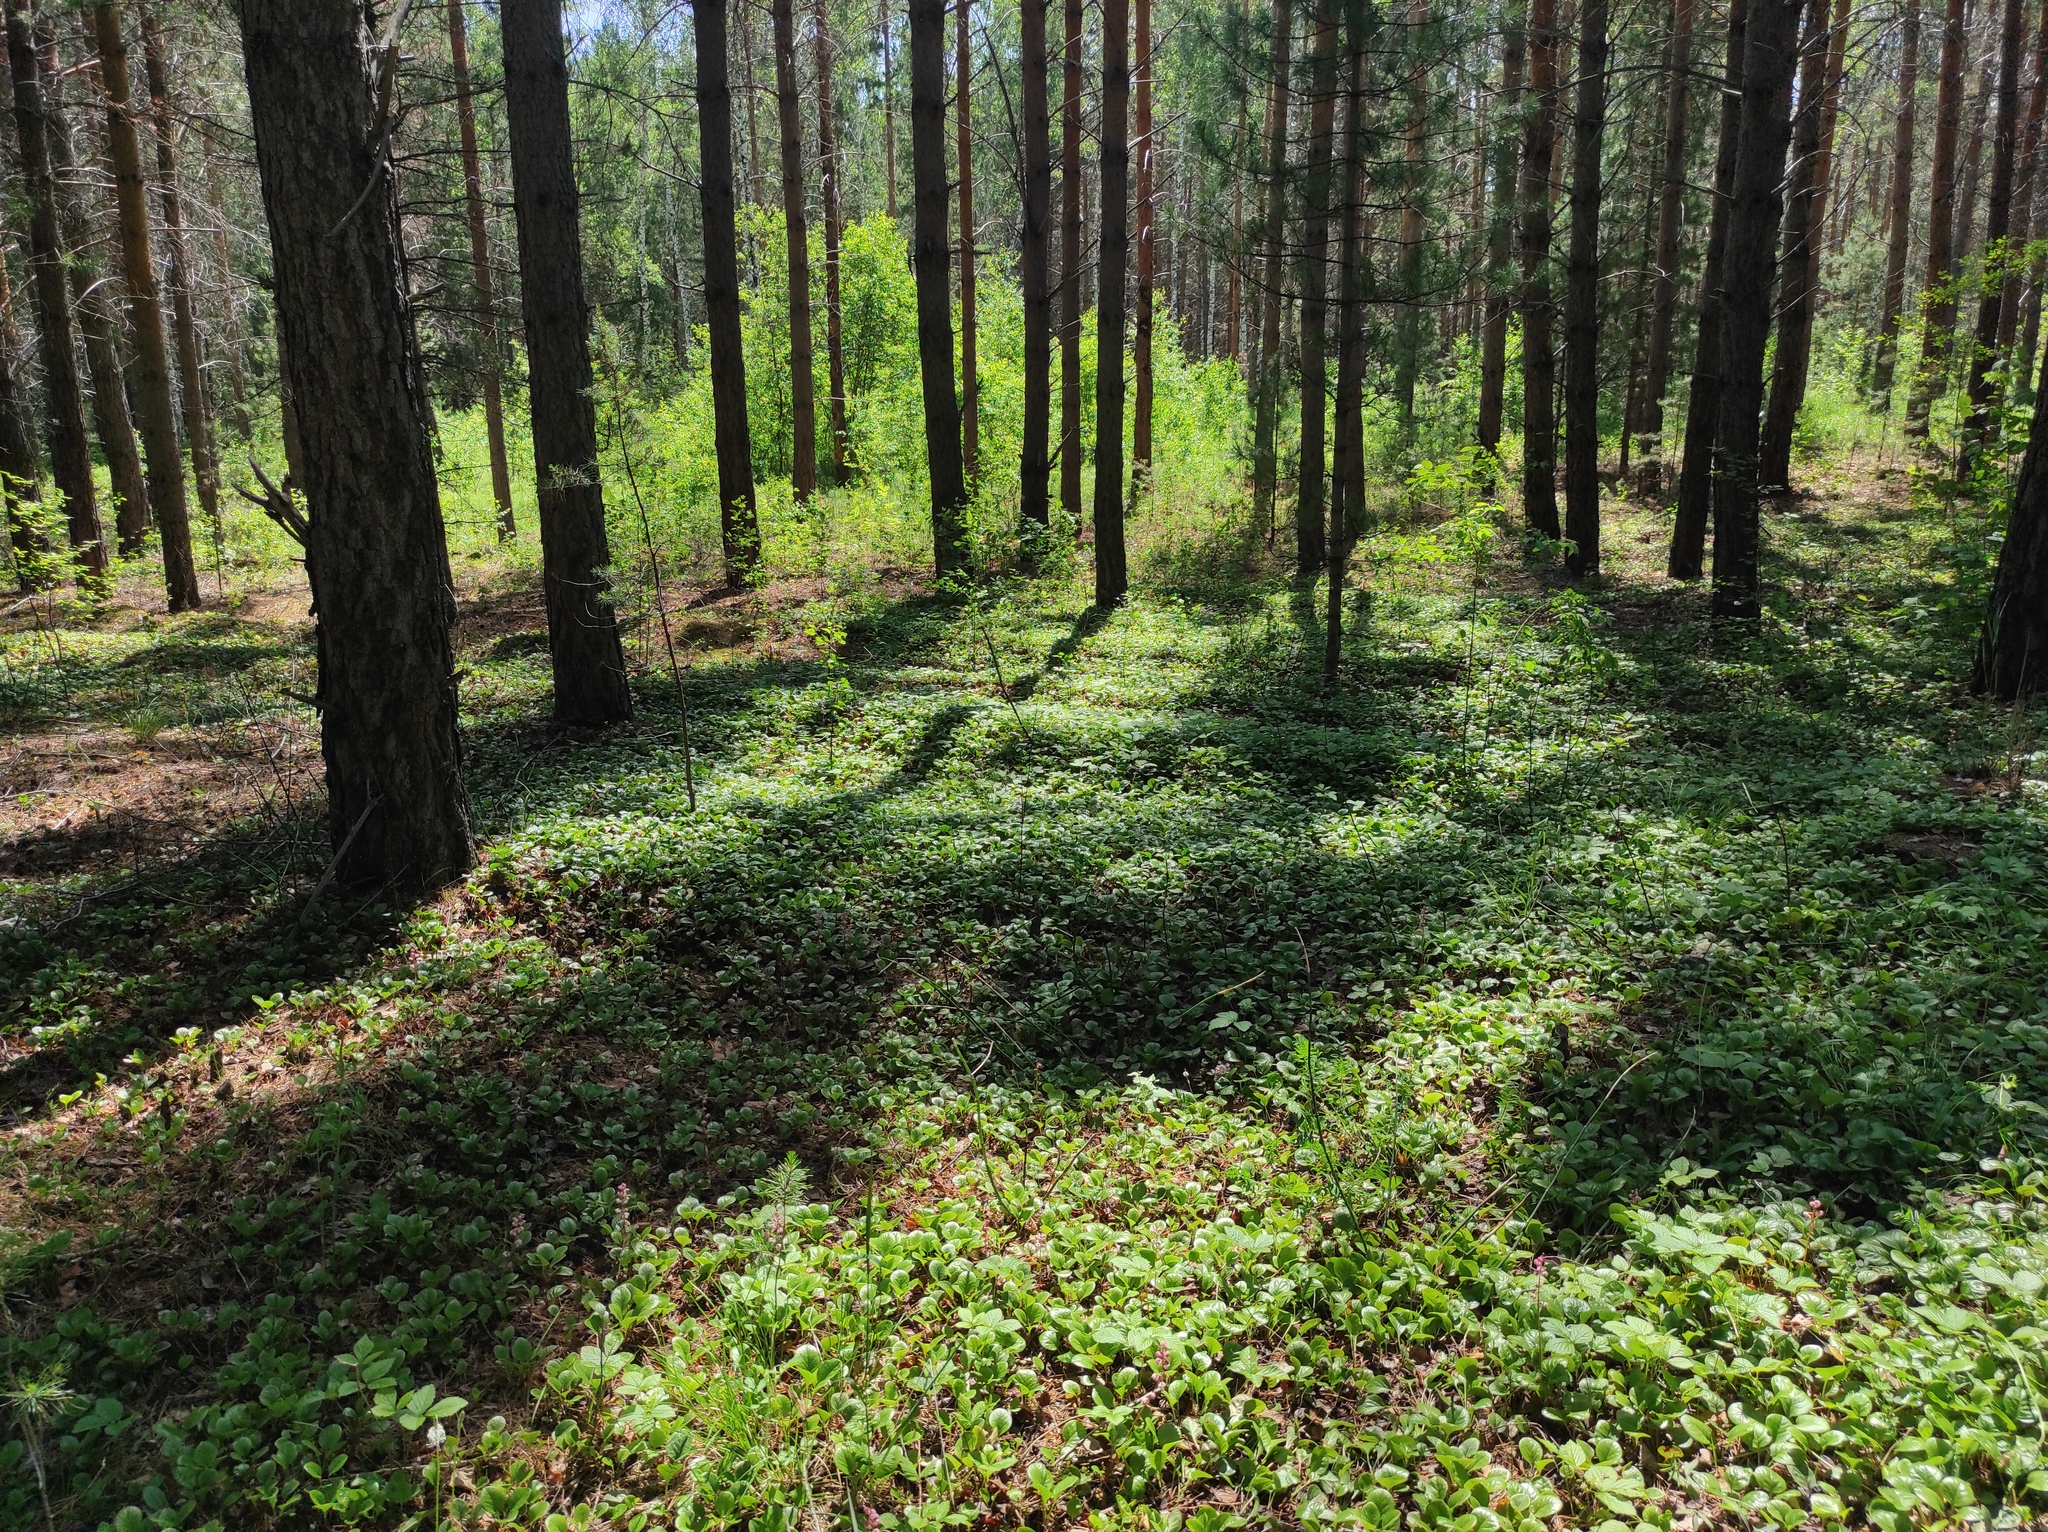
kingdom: Plantae
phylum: Tracheophyta
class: Magnoliopsida
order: Lamiales
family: Plantaginaceae
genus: Veronica
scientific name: Veronica chamaedrys
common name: Germander speedwell
